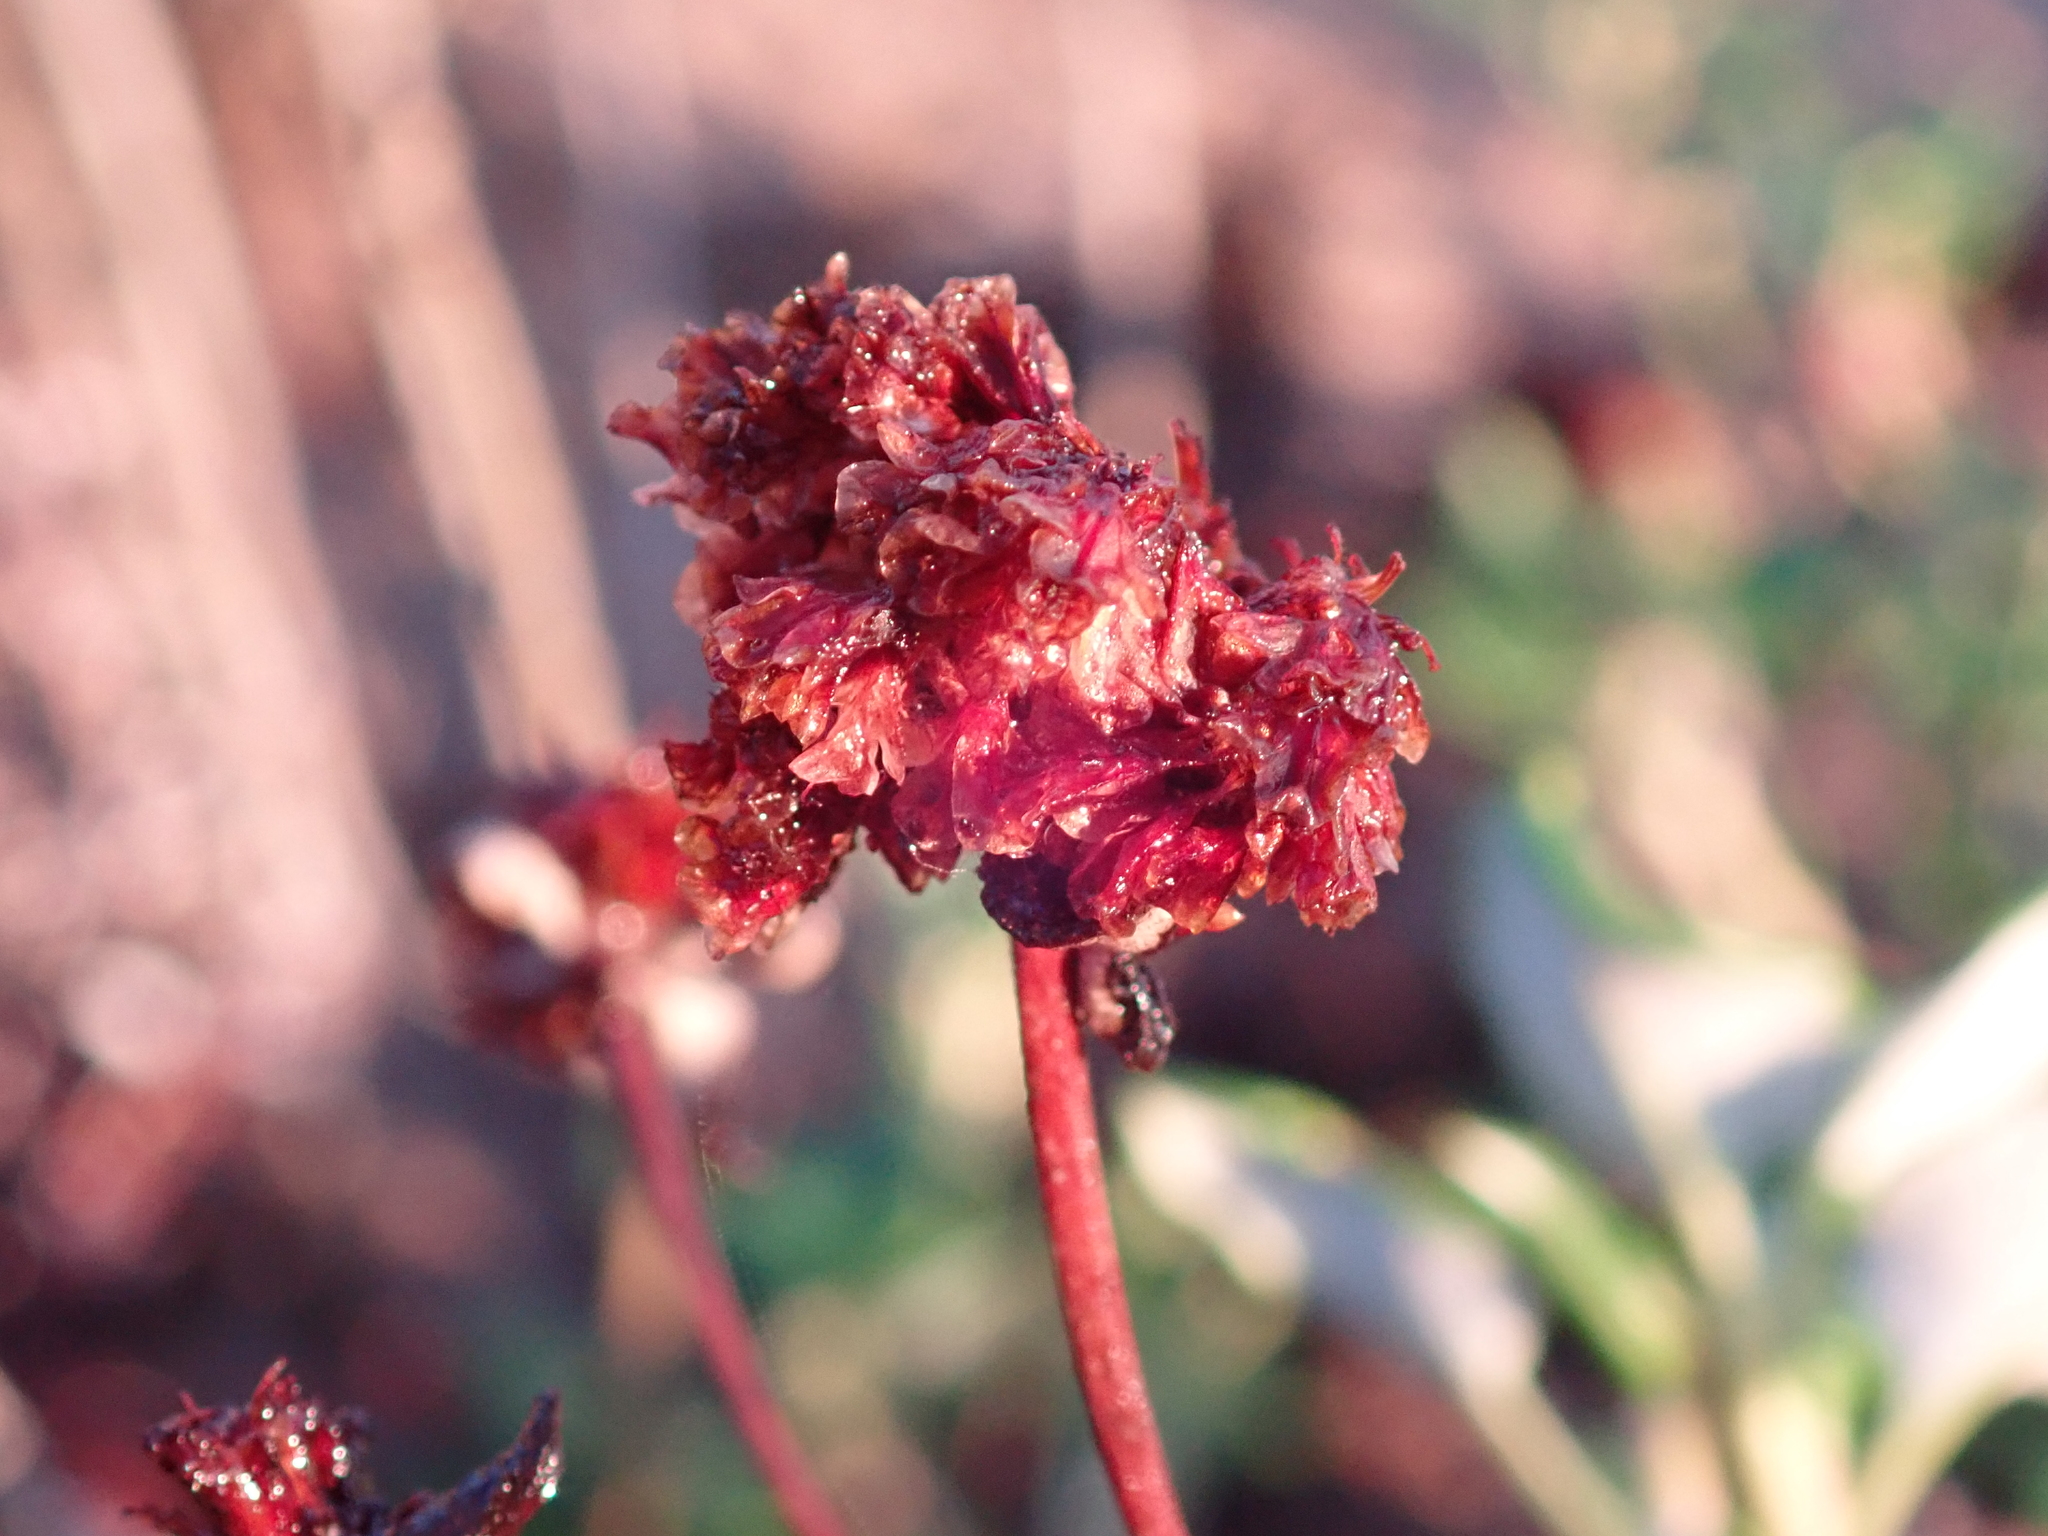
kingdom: Plantae
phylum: Tracheophyta
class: Magnoliopsida
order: Caryophyllales
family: Polygonaceae
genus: Eriogonum
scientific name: Eriogonum parvifolium
